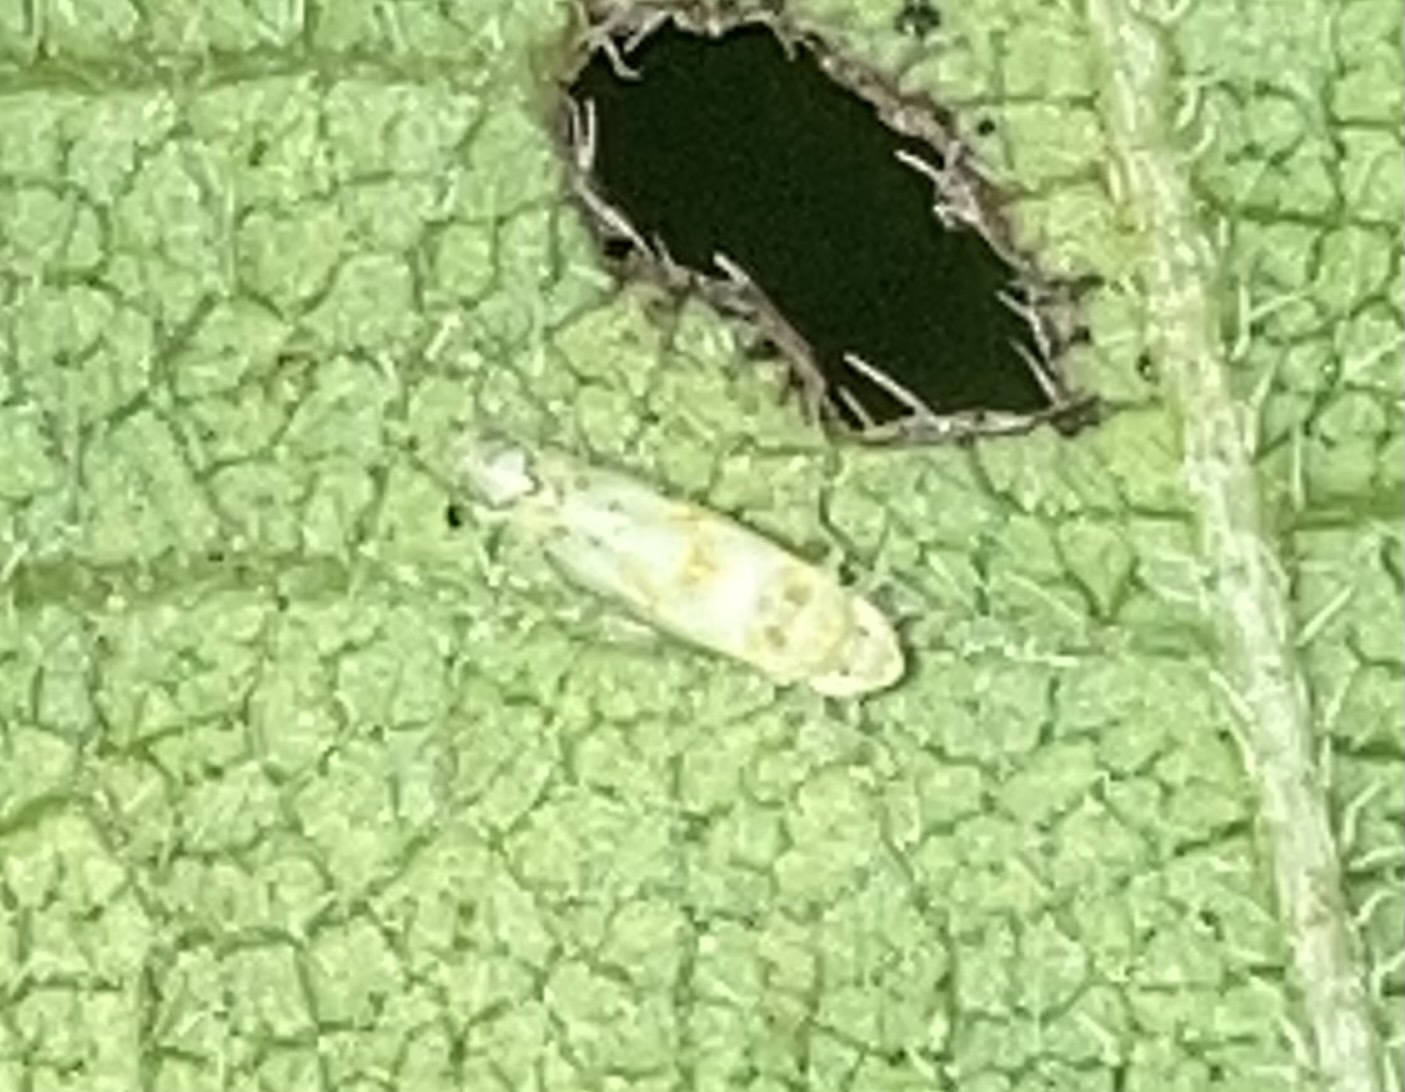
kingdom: Animalia
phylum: Arthropoda
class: Insecta
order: Hemiptera
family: Cicadellidae
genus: Protalebra
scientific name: Protalebra nexa
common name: Leafhopper
